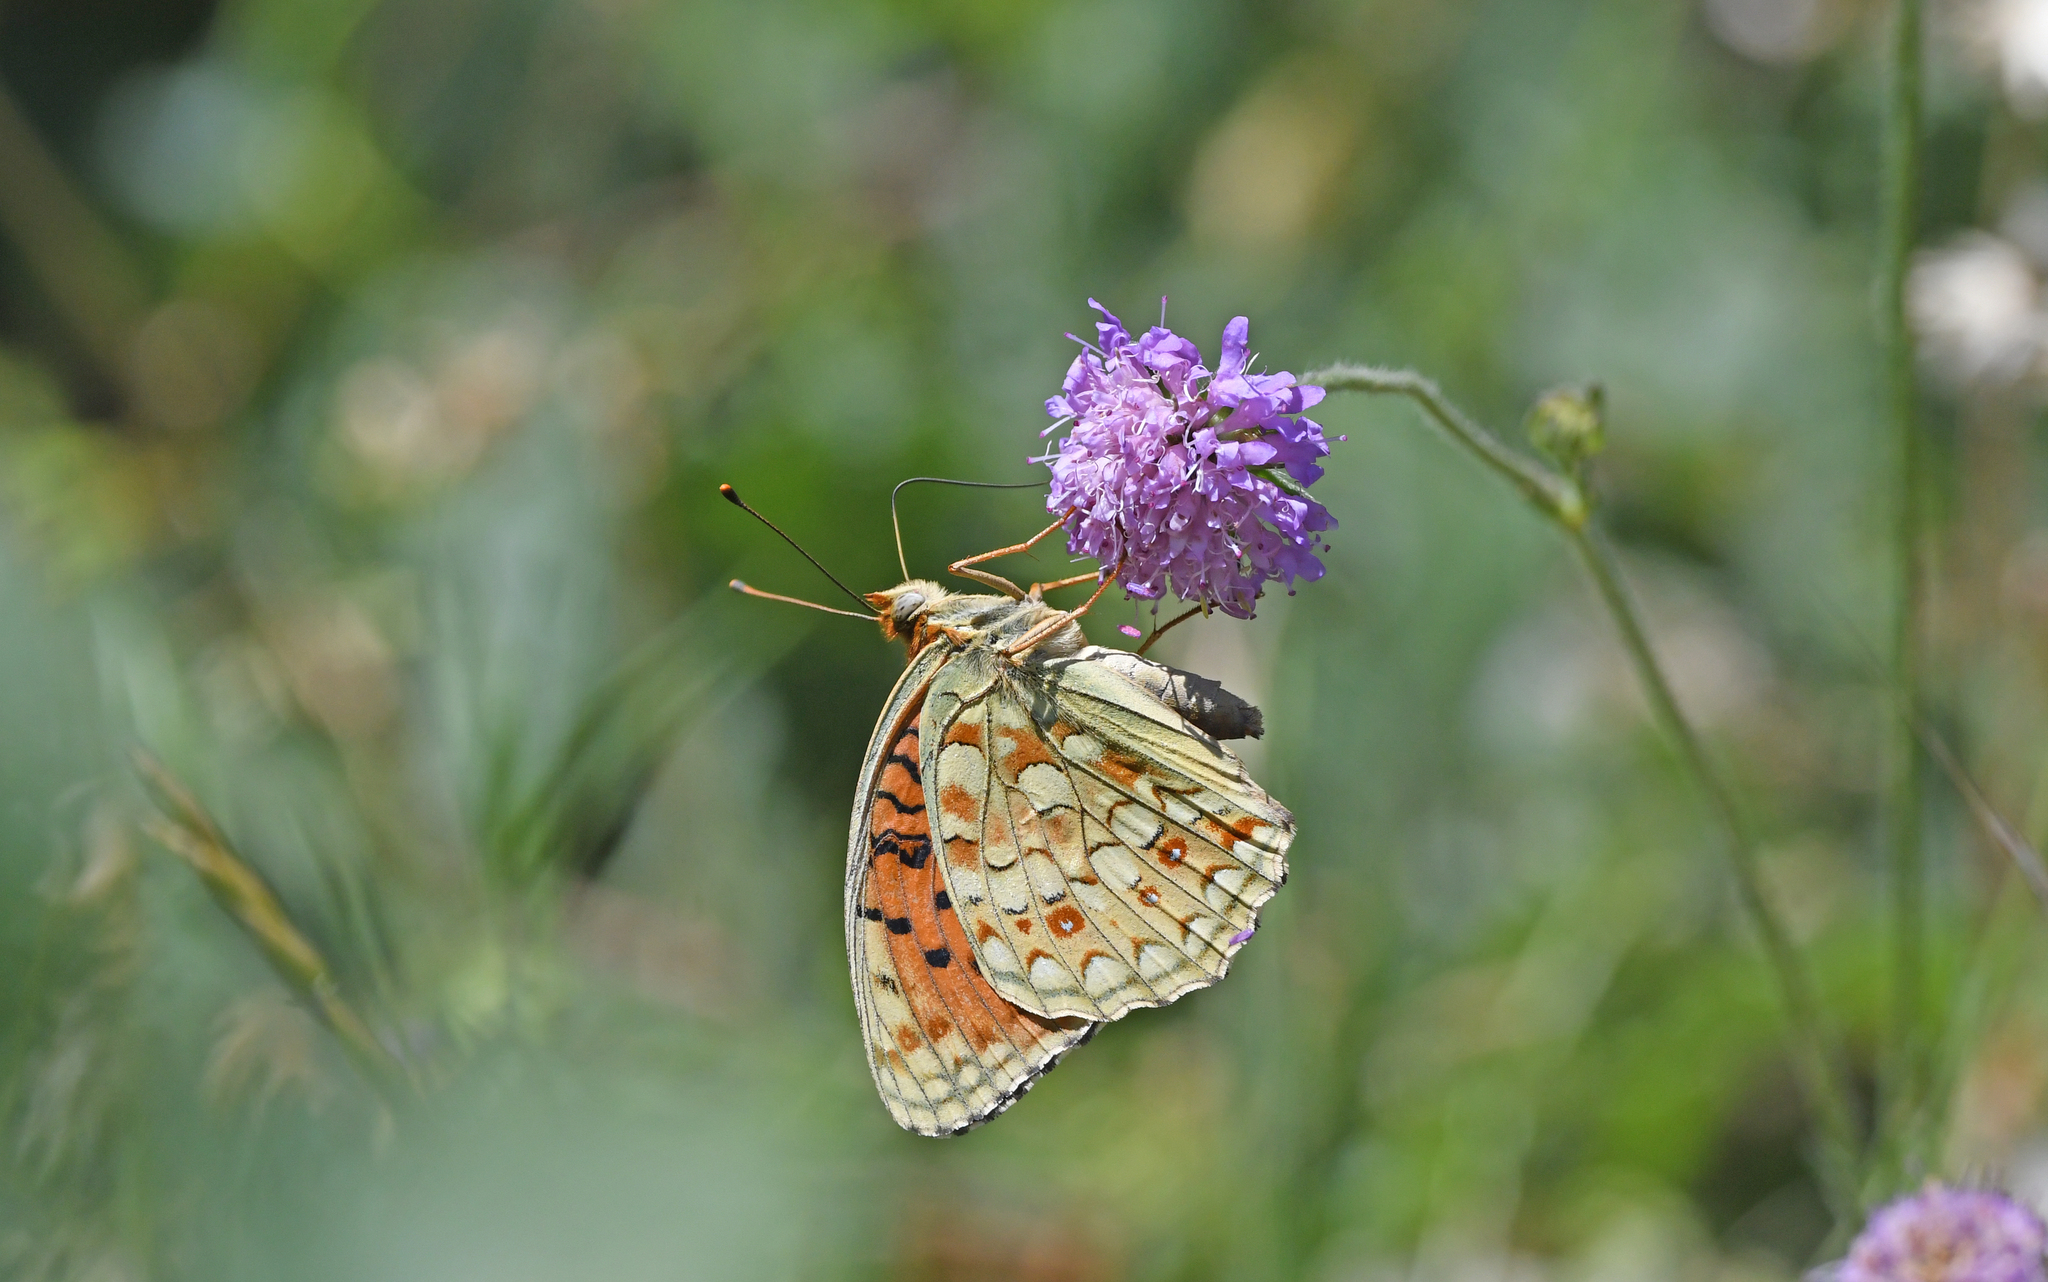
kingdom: Animalia
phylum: Arthropoda
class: Insecta
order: Lepidoptera
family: Nymphalidae
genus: Fabriciana
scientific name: Fabriciana niobe
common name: Niobe fritillary
